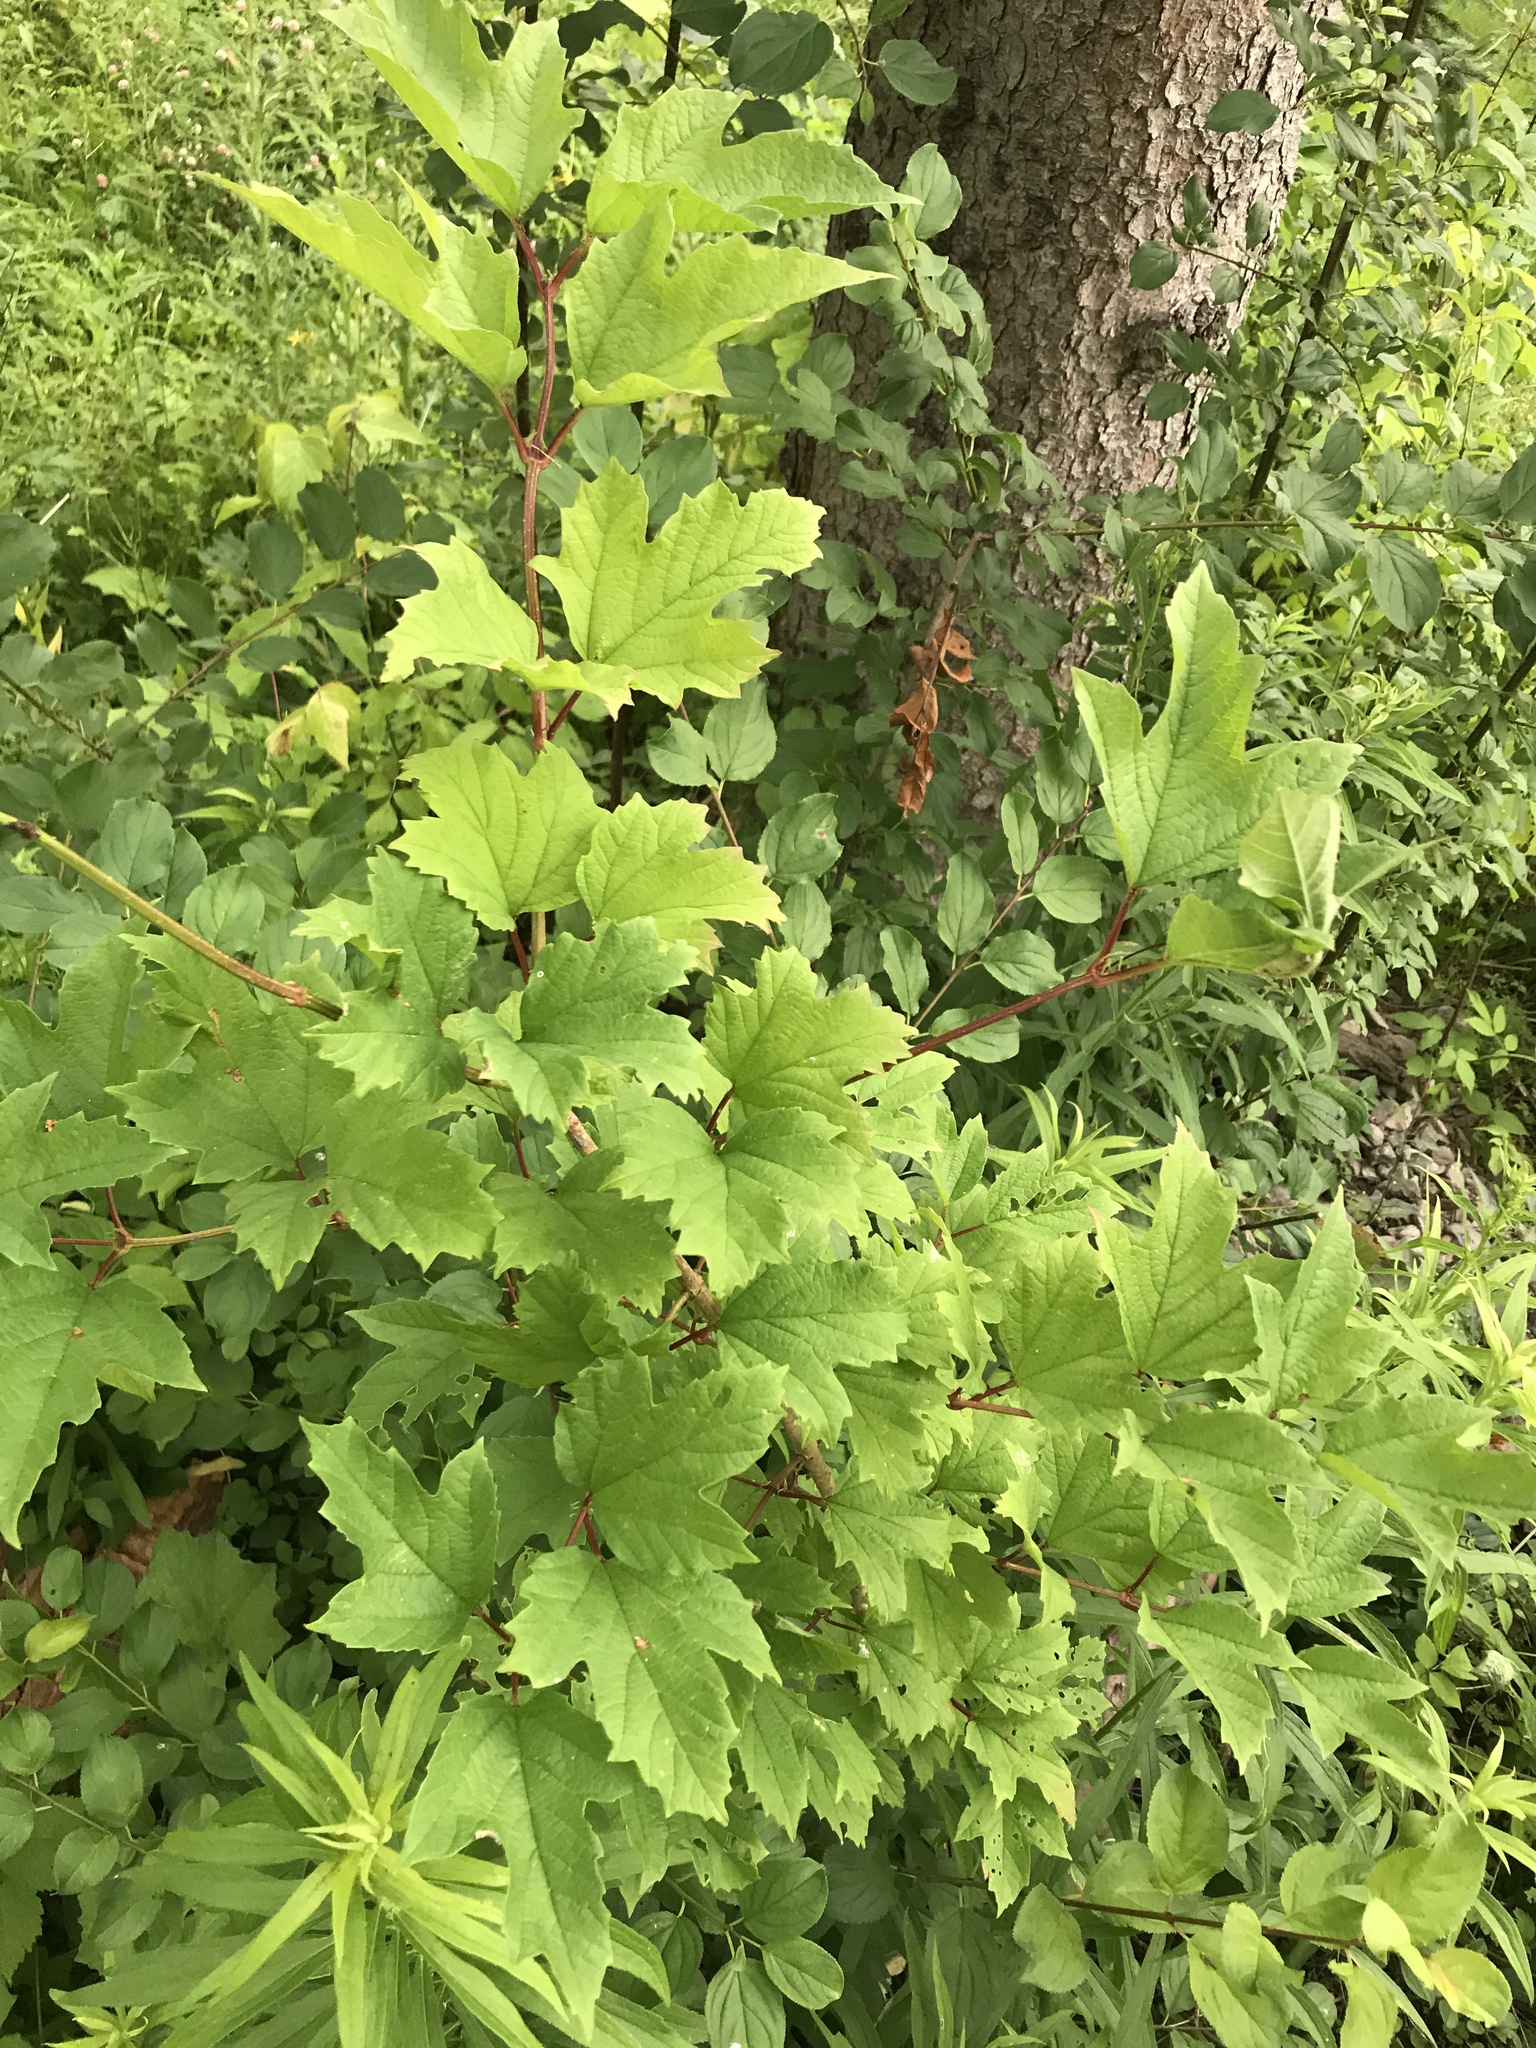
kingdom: Plantae
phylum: Tracheophyta
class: Magnoliopsida
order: Dipsacales
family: Viburnaceae
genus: Viburnum
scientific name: Viburnum opulus
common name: Guelder-rose
